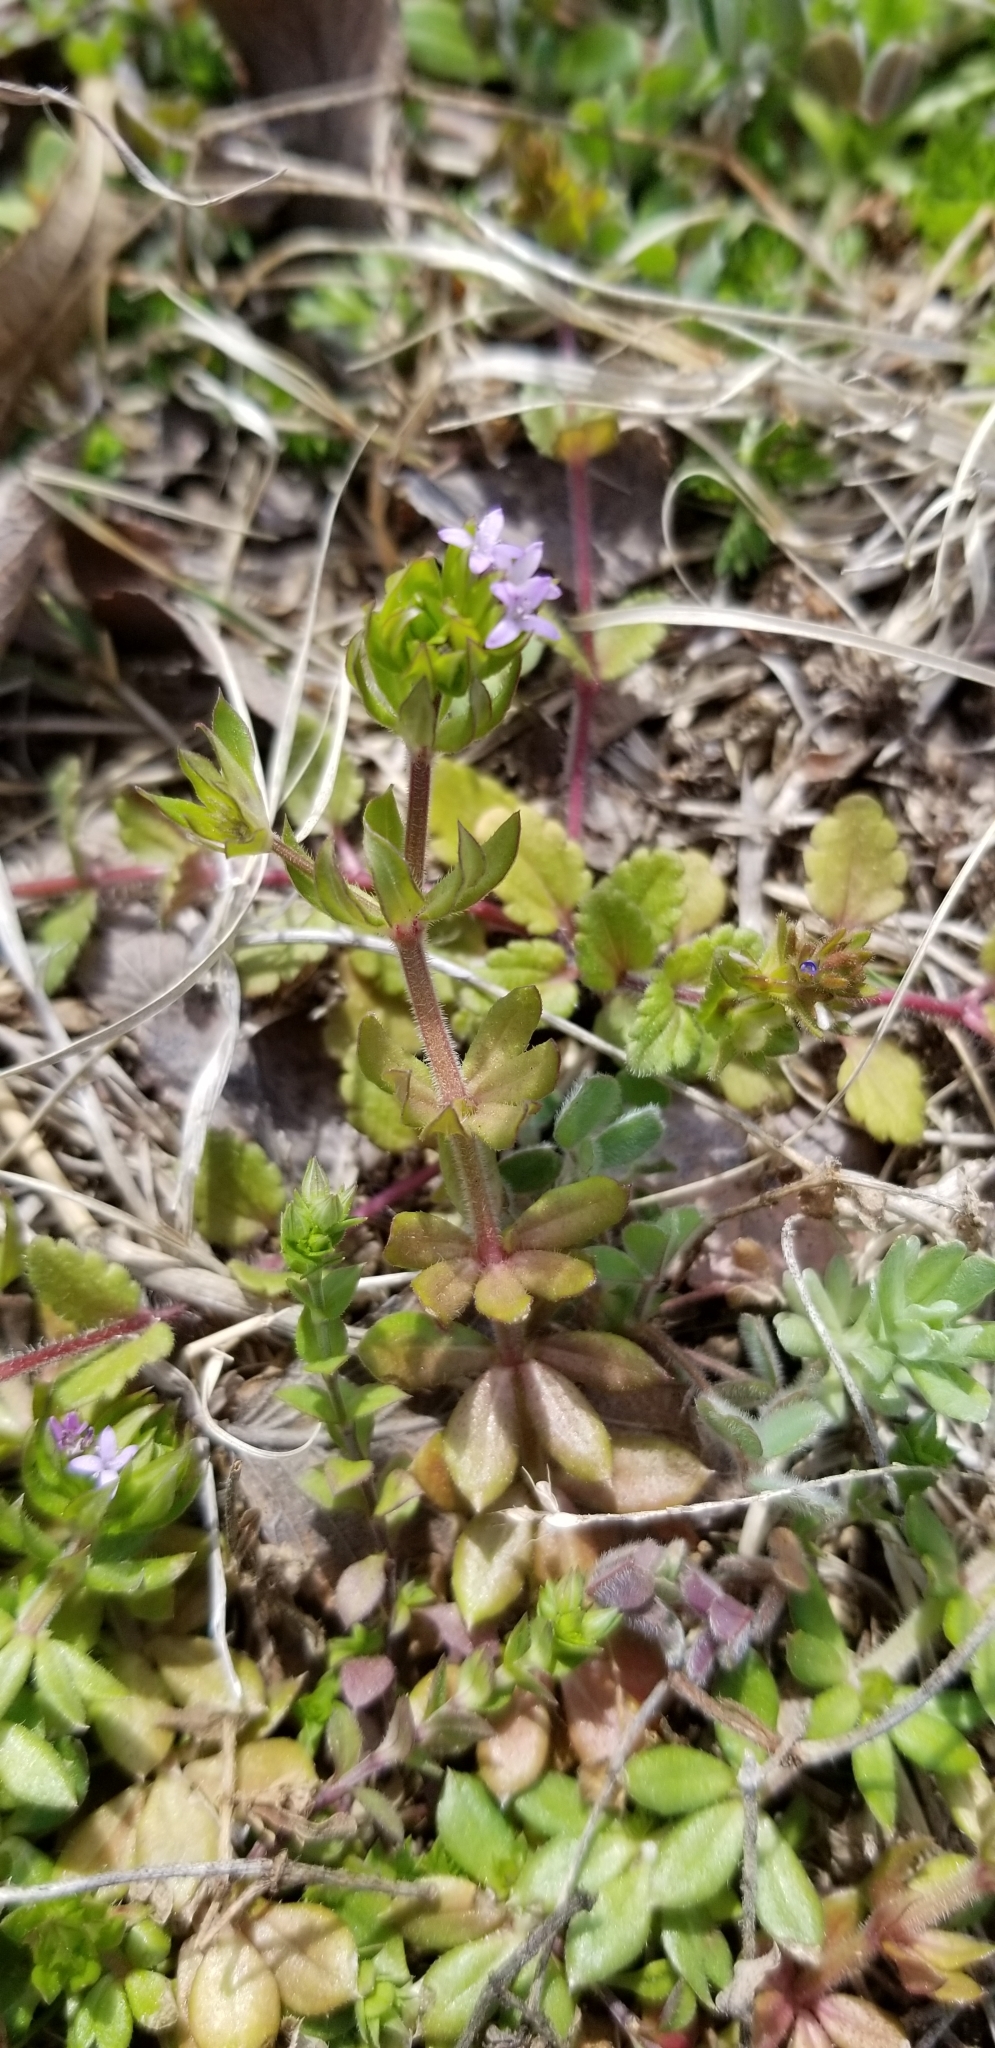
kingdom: Plantae
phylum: Tracheophyta
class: Magnoliopsida
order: Gentianales
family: Rubiaceae
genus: Sherardia
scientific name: Sherardia arvensis
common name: Field madder
